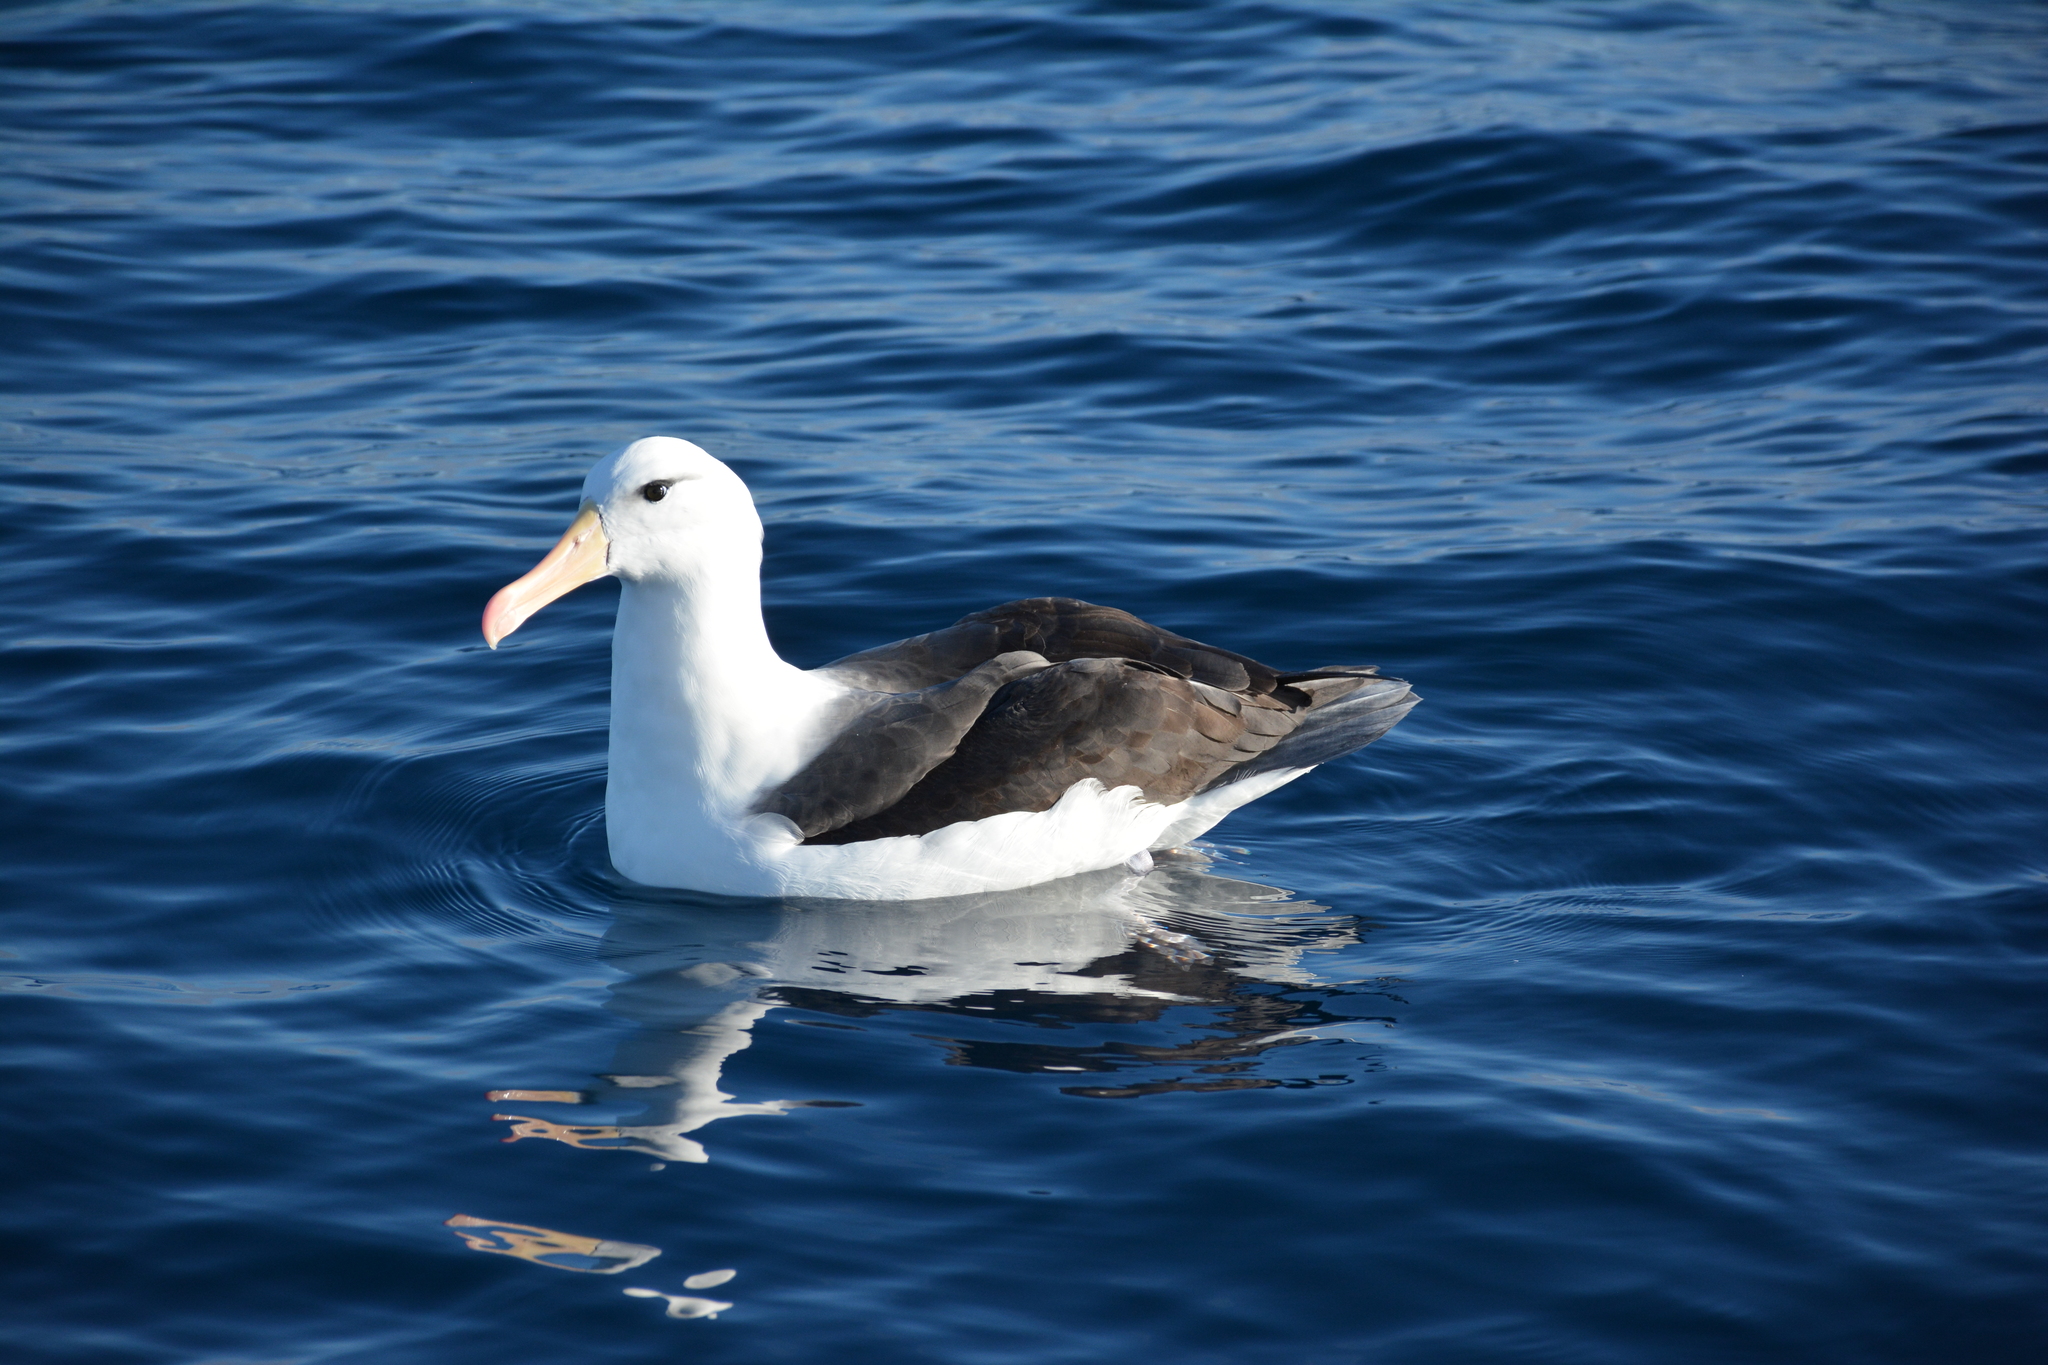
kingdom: Animalia
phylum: Chordata
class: Aves
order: Procellariiformes
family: Diomedeidae
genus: Thalassarche
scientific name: Thalassarche melanophris
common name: Black-browed albatross
